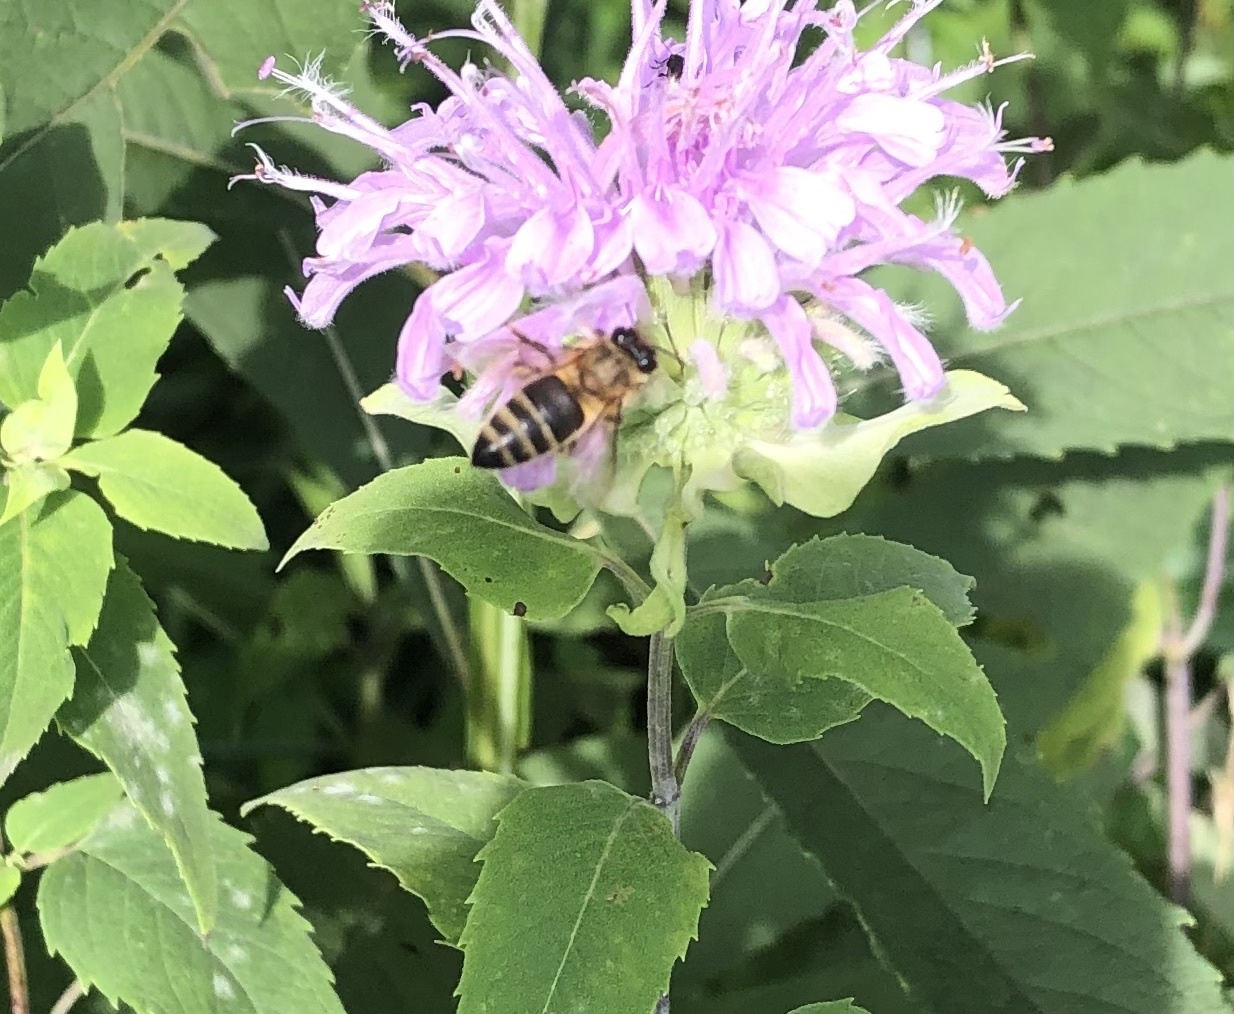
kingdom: Animalia
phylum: Arthropoda
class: Insecta
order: Hymenoptera
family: Apidae
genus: Apis
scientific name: Apis mellifera
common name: Honey bee
